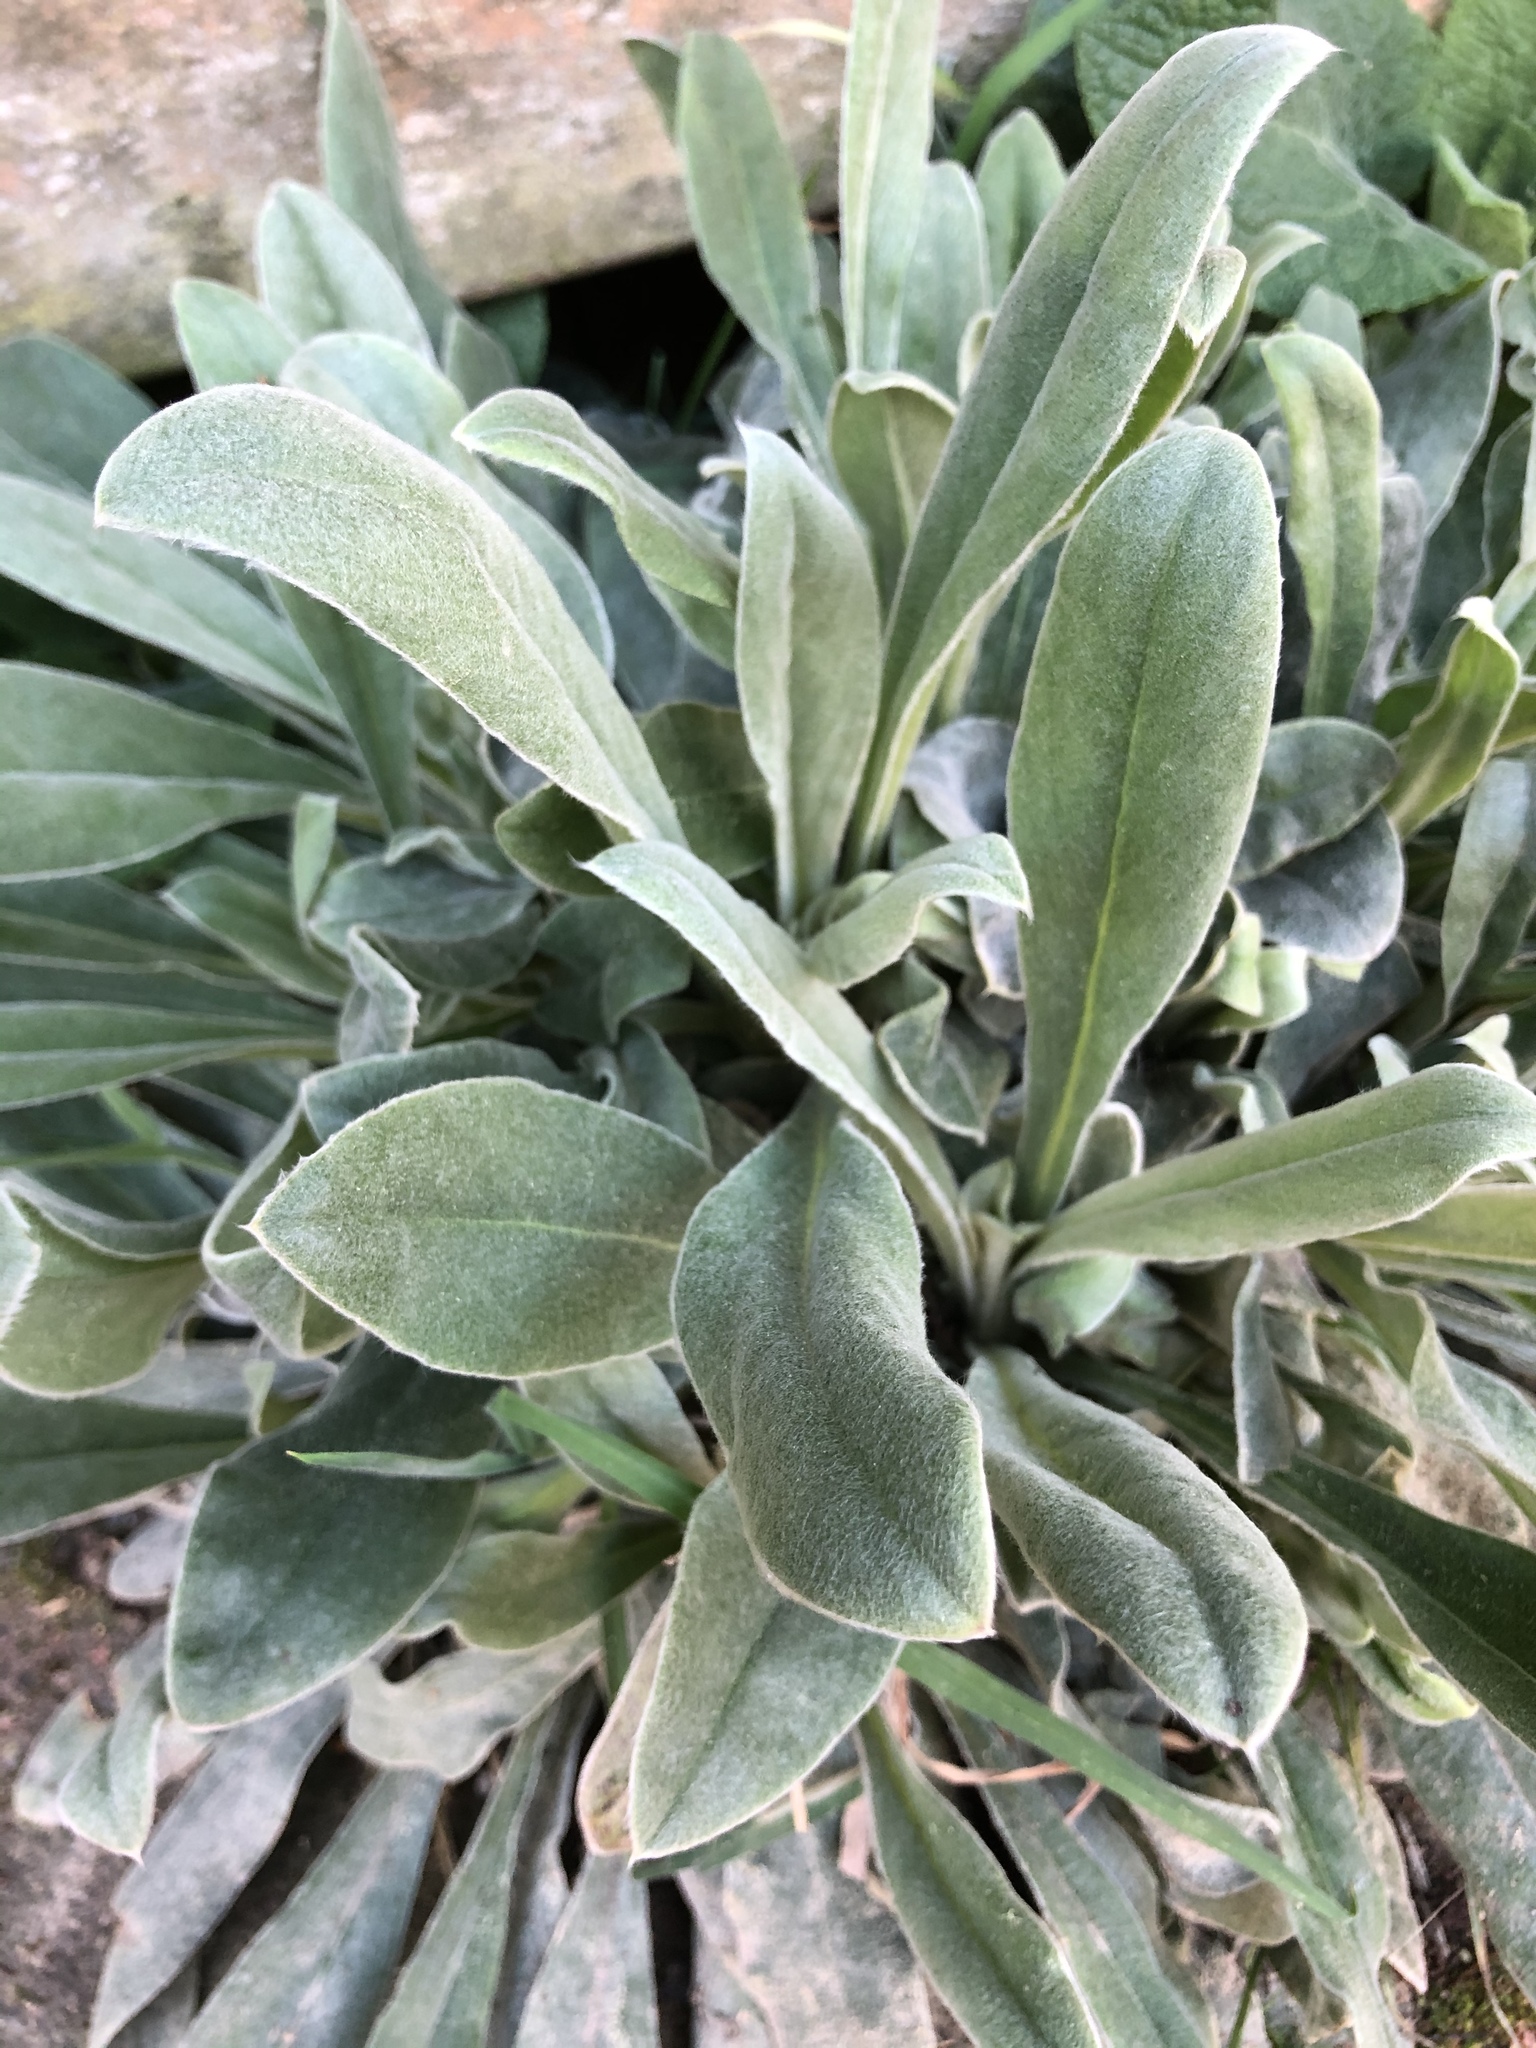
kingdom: Plantae
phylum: Tracheophyta
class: Magnoliopsida
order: Caryophyllales
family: Caryophyllaceae
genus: Silene
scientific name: Silene coronaria
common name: Rose campion
